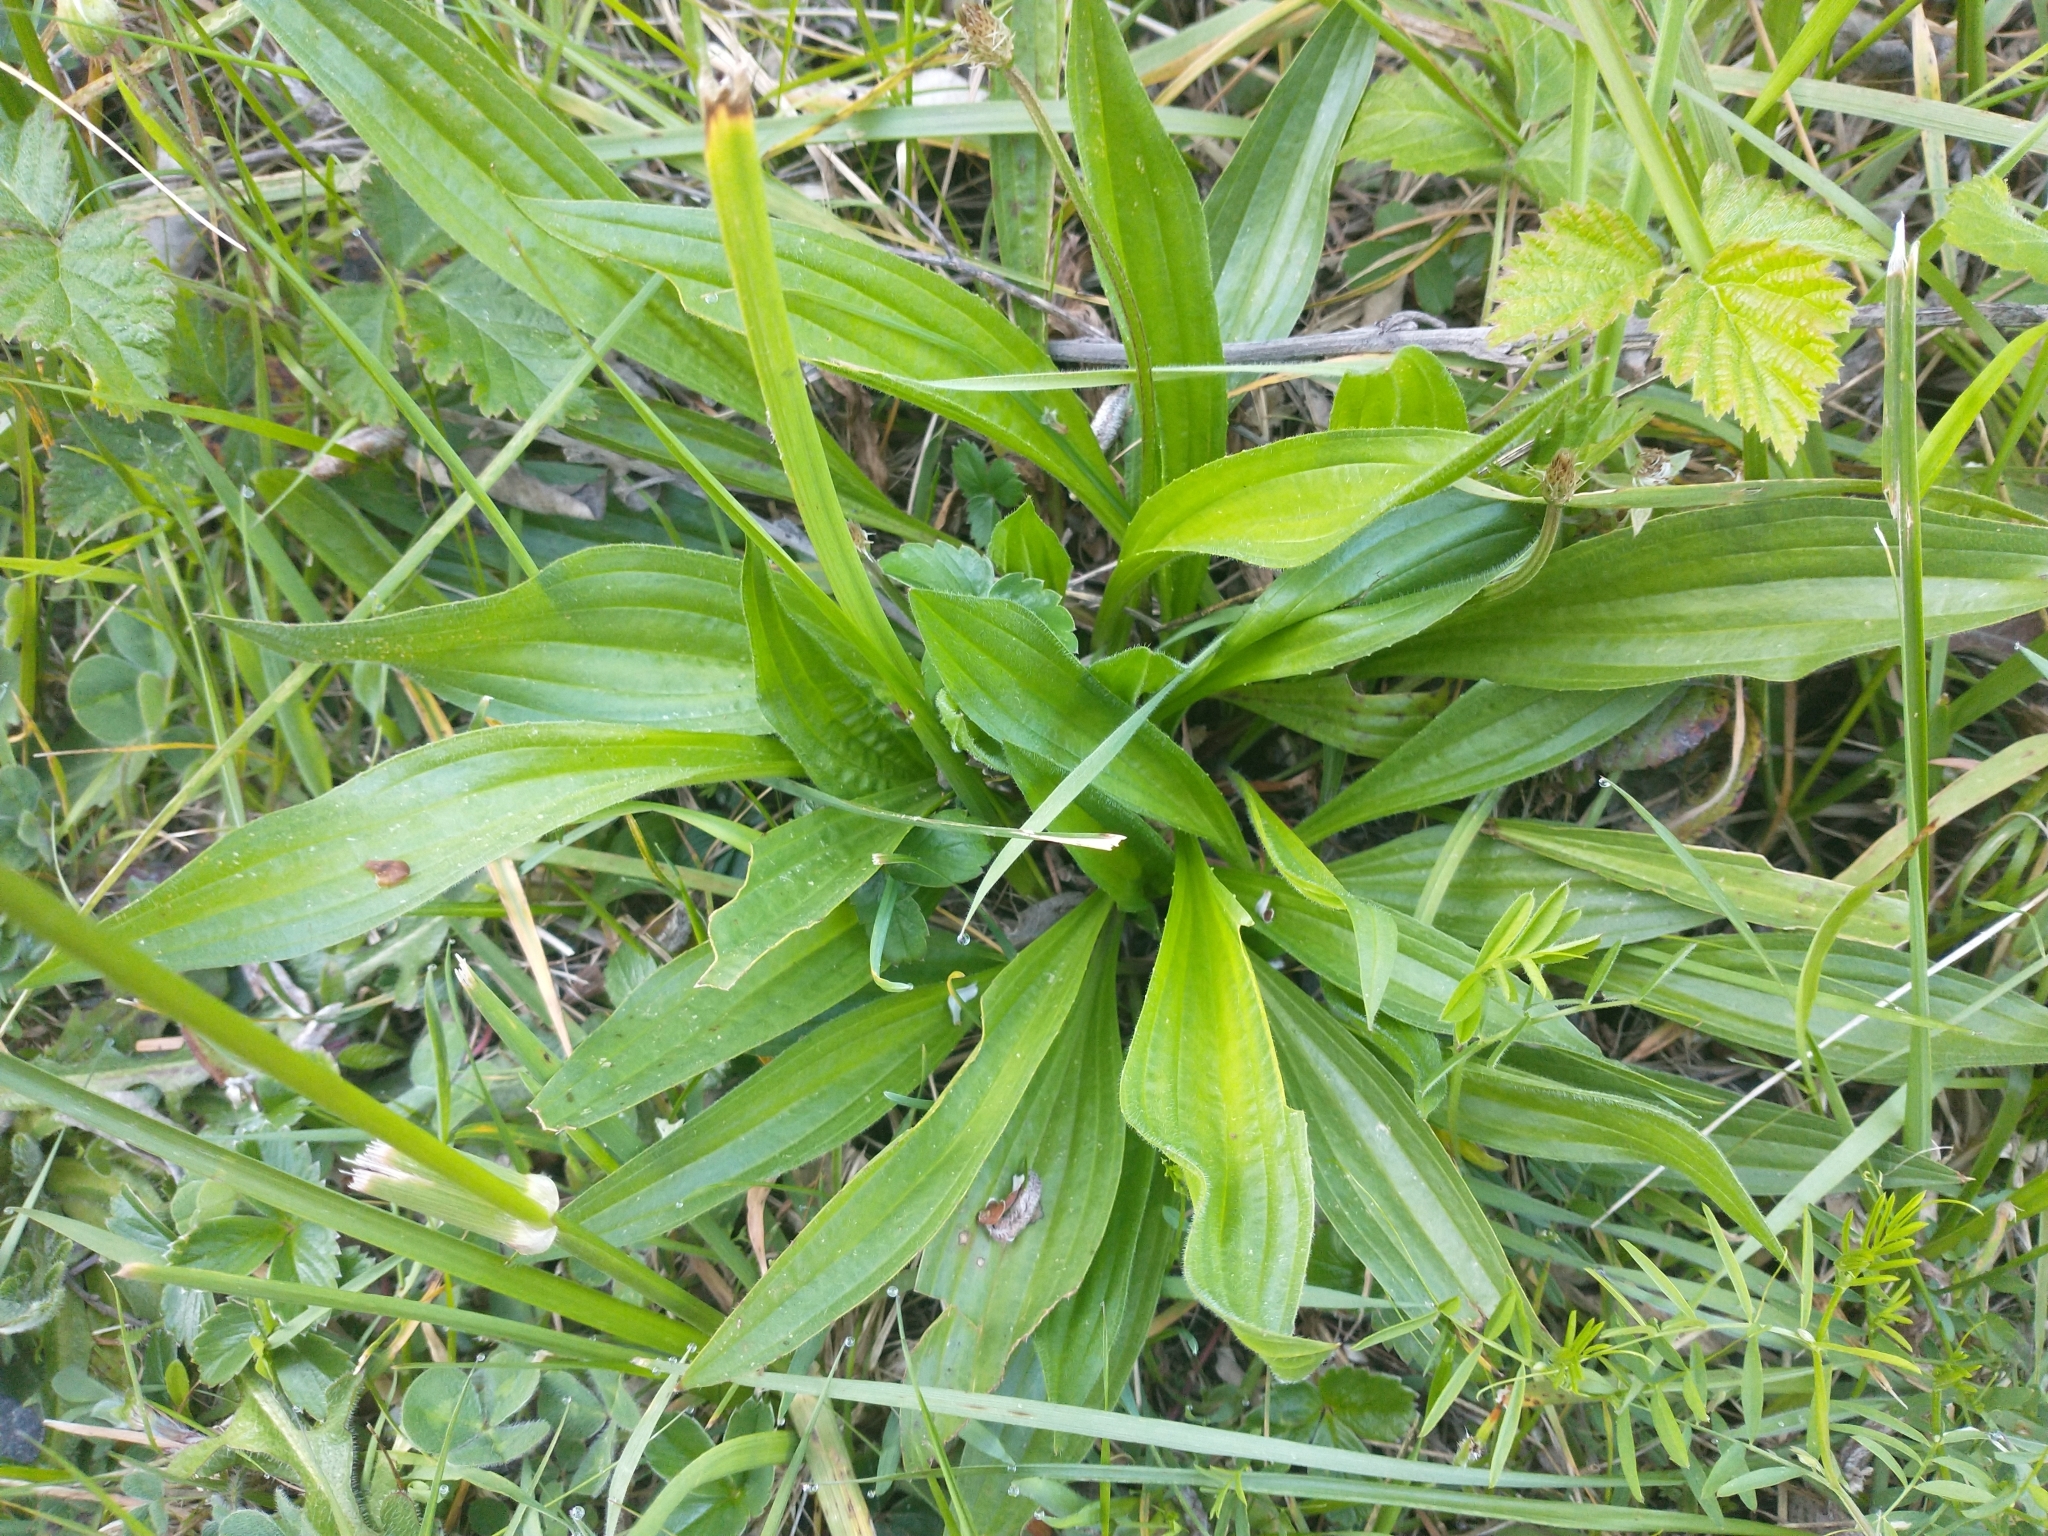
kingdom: Plantae
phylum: Tracheophyta
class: Magnoliopsida
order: Lamiales
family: Plantaginaceae
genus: Plantago
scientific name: Plantago lanceolata
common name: Ribwort plantain
